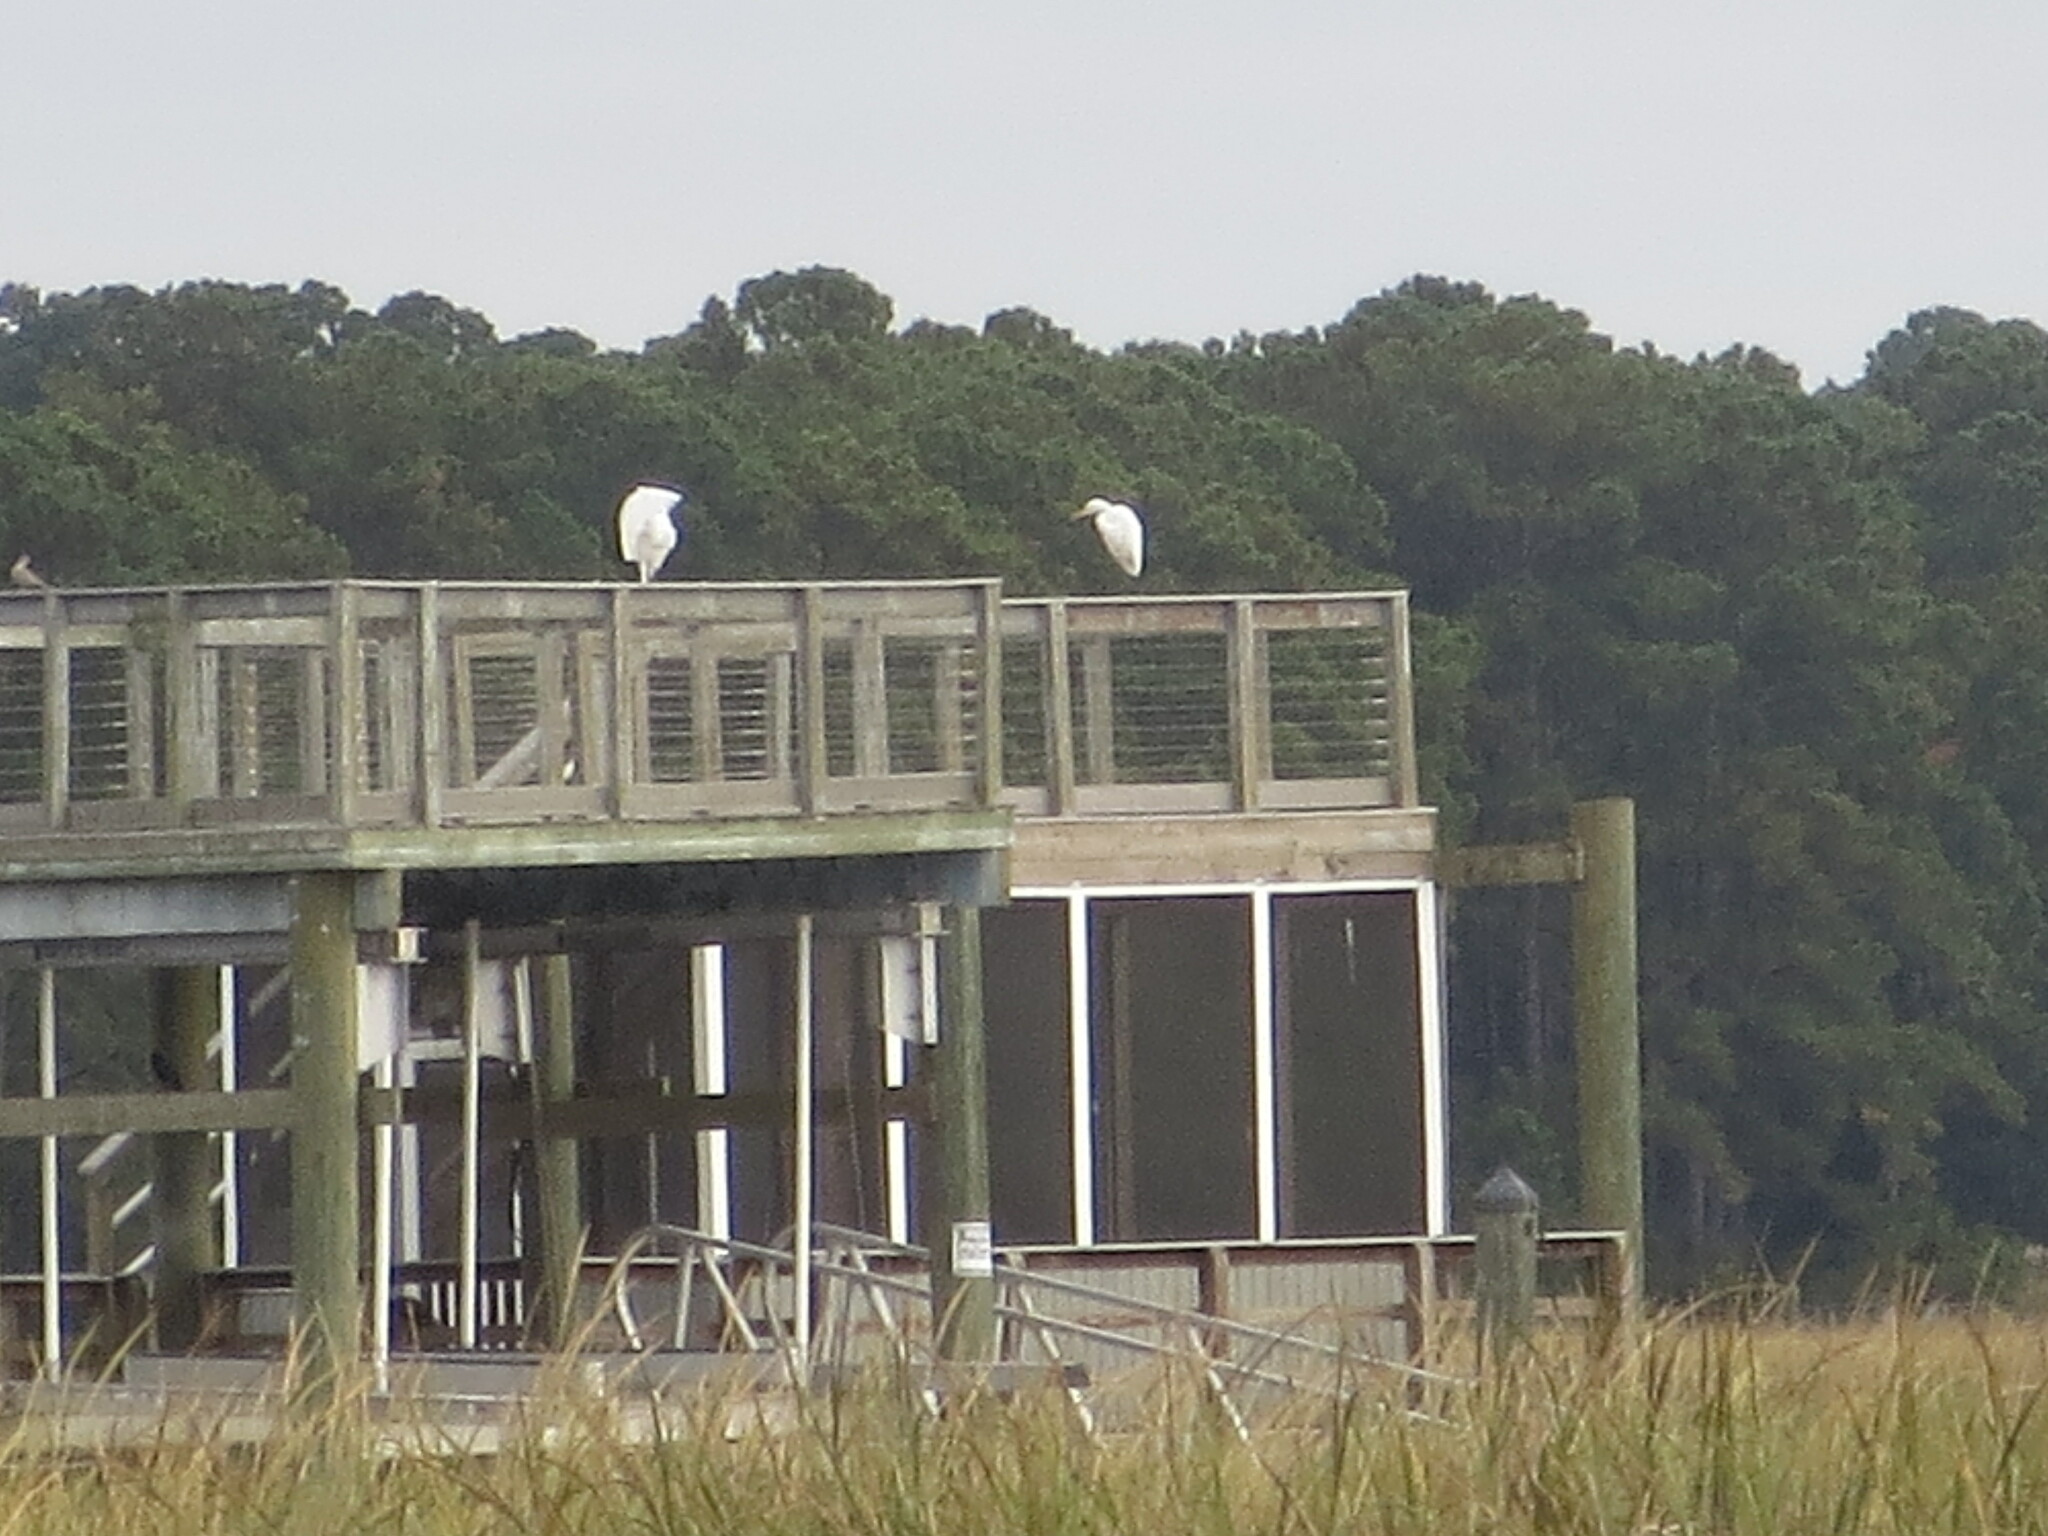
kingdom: Animalia
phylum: Chordata
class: Aves
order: Pelecaniformes
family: Ardeidae
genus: Ardea
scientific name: Ardea alba
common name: Great egret
